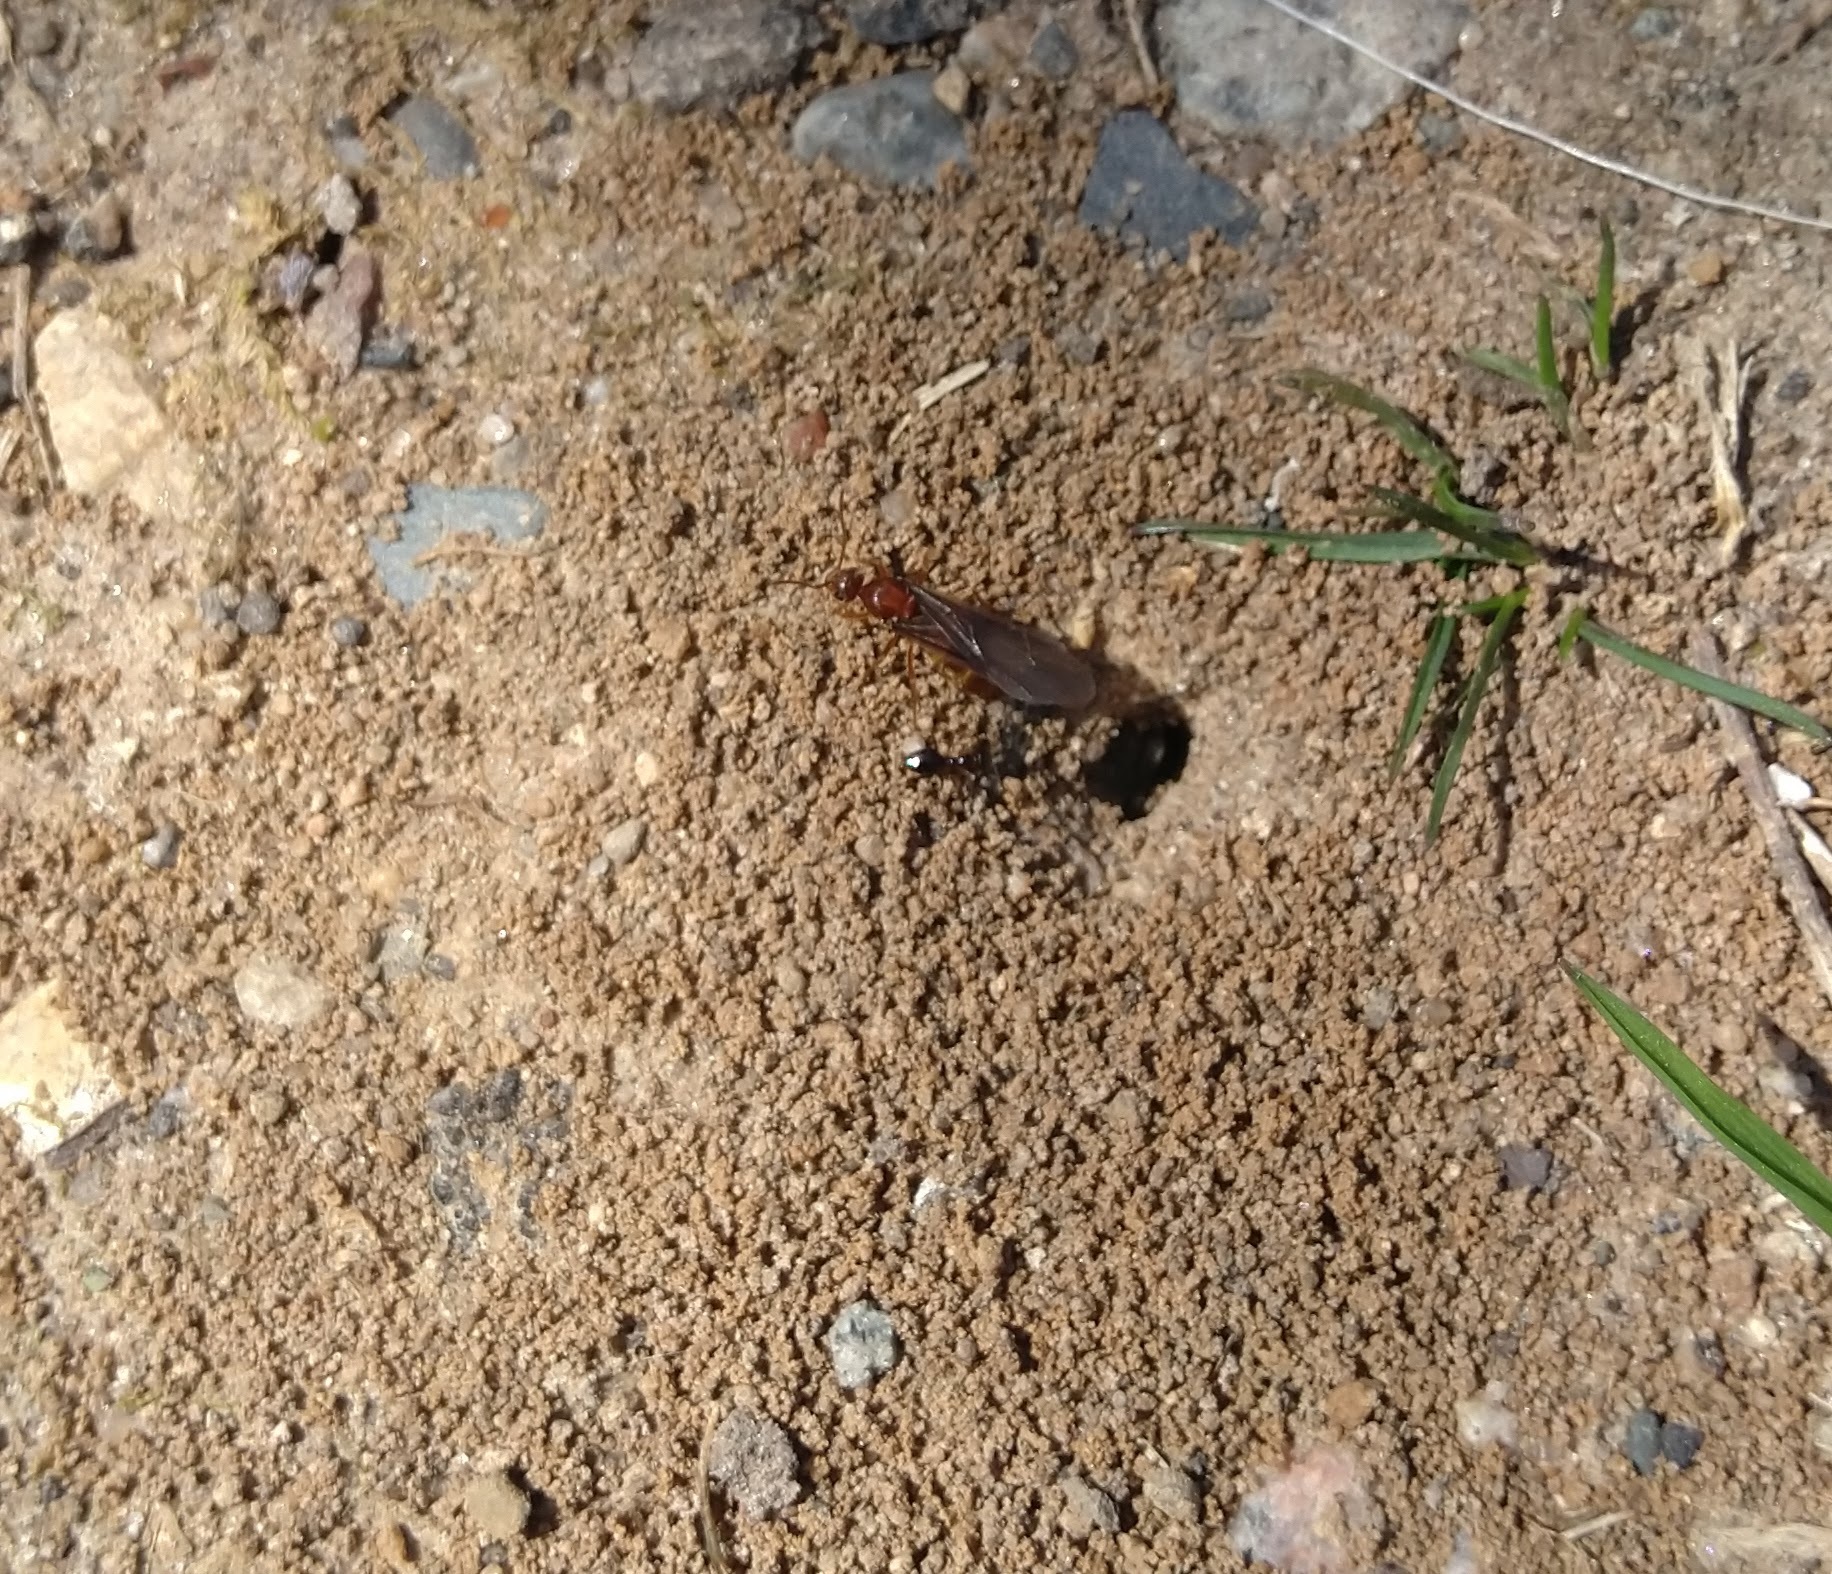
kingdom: Animalia
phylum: Arthropoda
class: Insecta
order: Hymenoptera
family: Formicidae
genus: Prenolepis
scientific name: Prenolepis imparis
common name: Small honey ant
